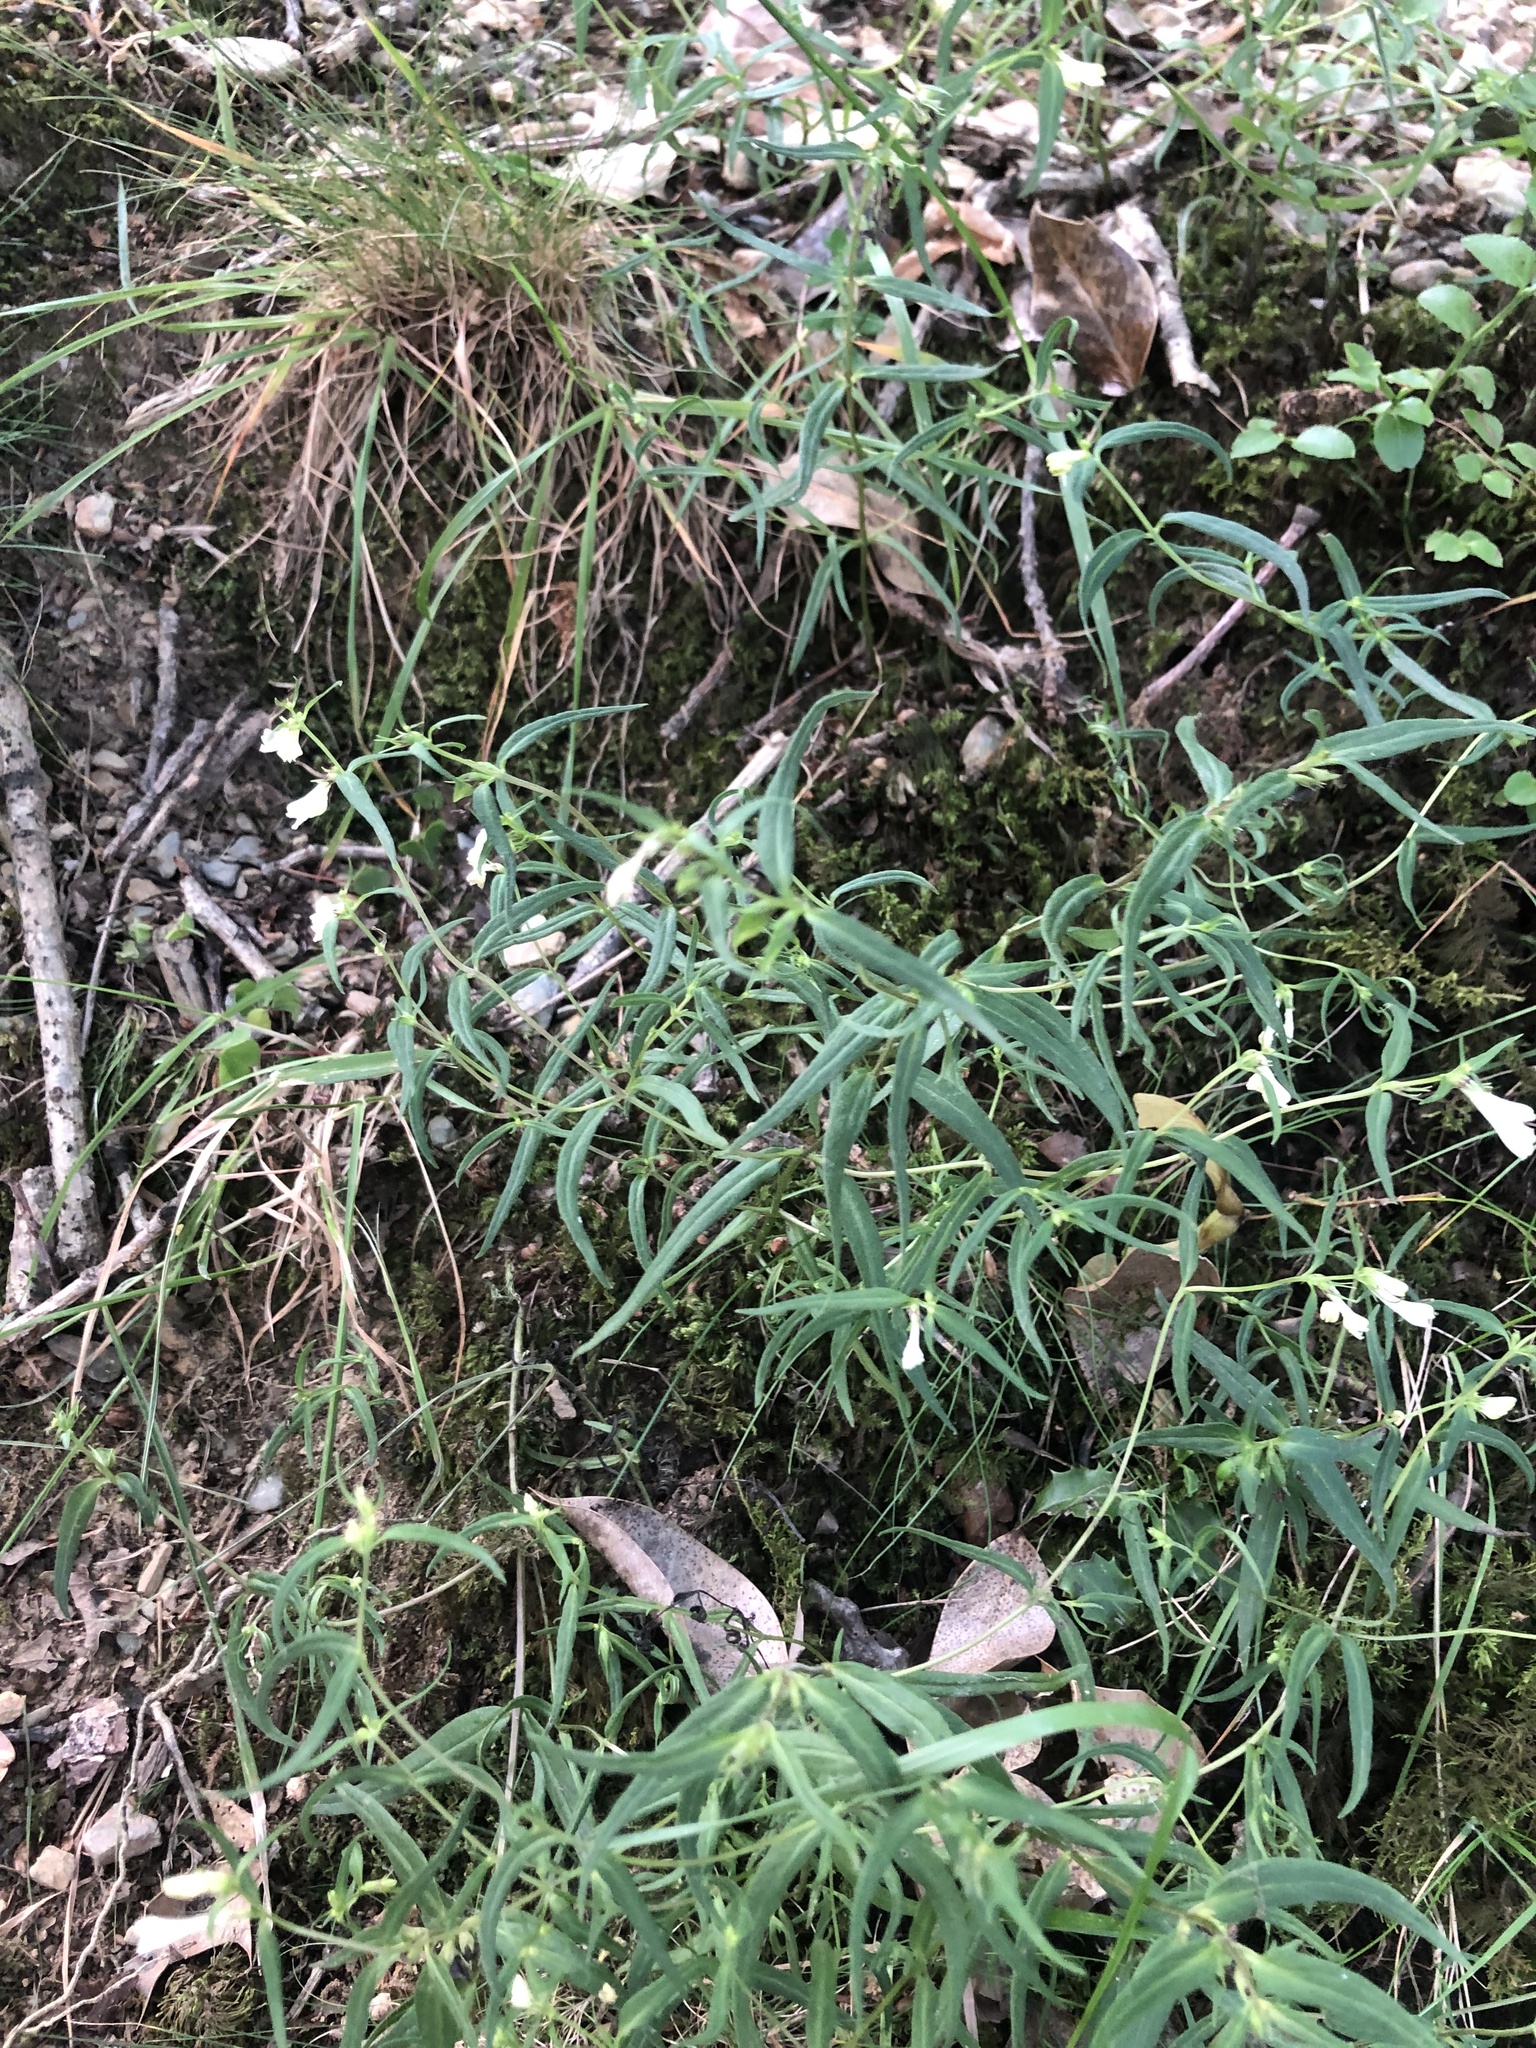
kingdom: Plantae
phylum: Tracheophyta
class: Magnoliopsida
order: Lamiales
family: Orobanchaceae
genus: Melampyrum
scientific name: Melampyrum pratense
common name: Common cow-wheat
